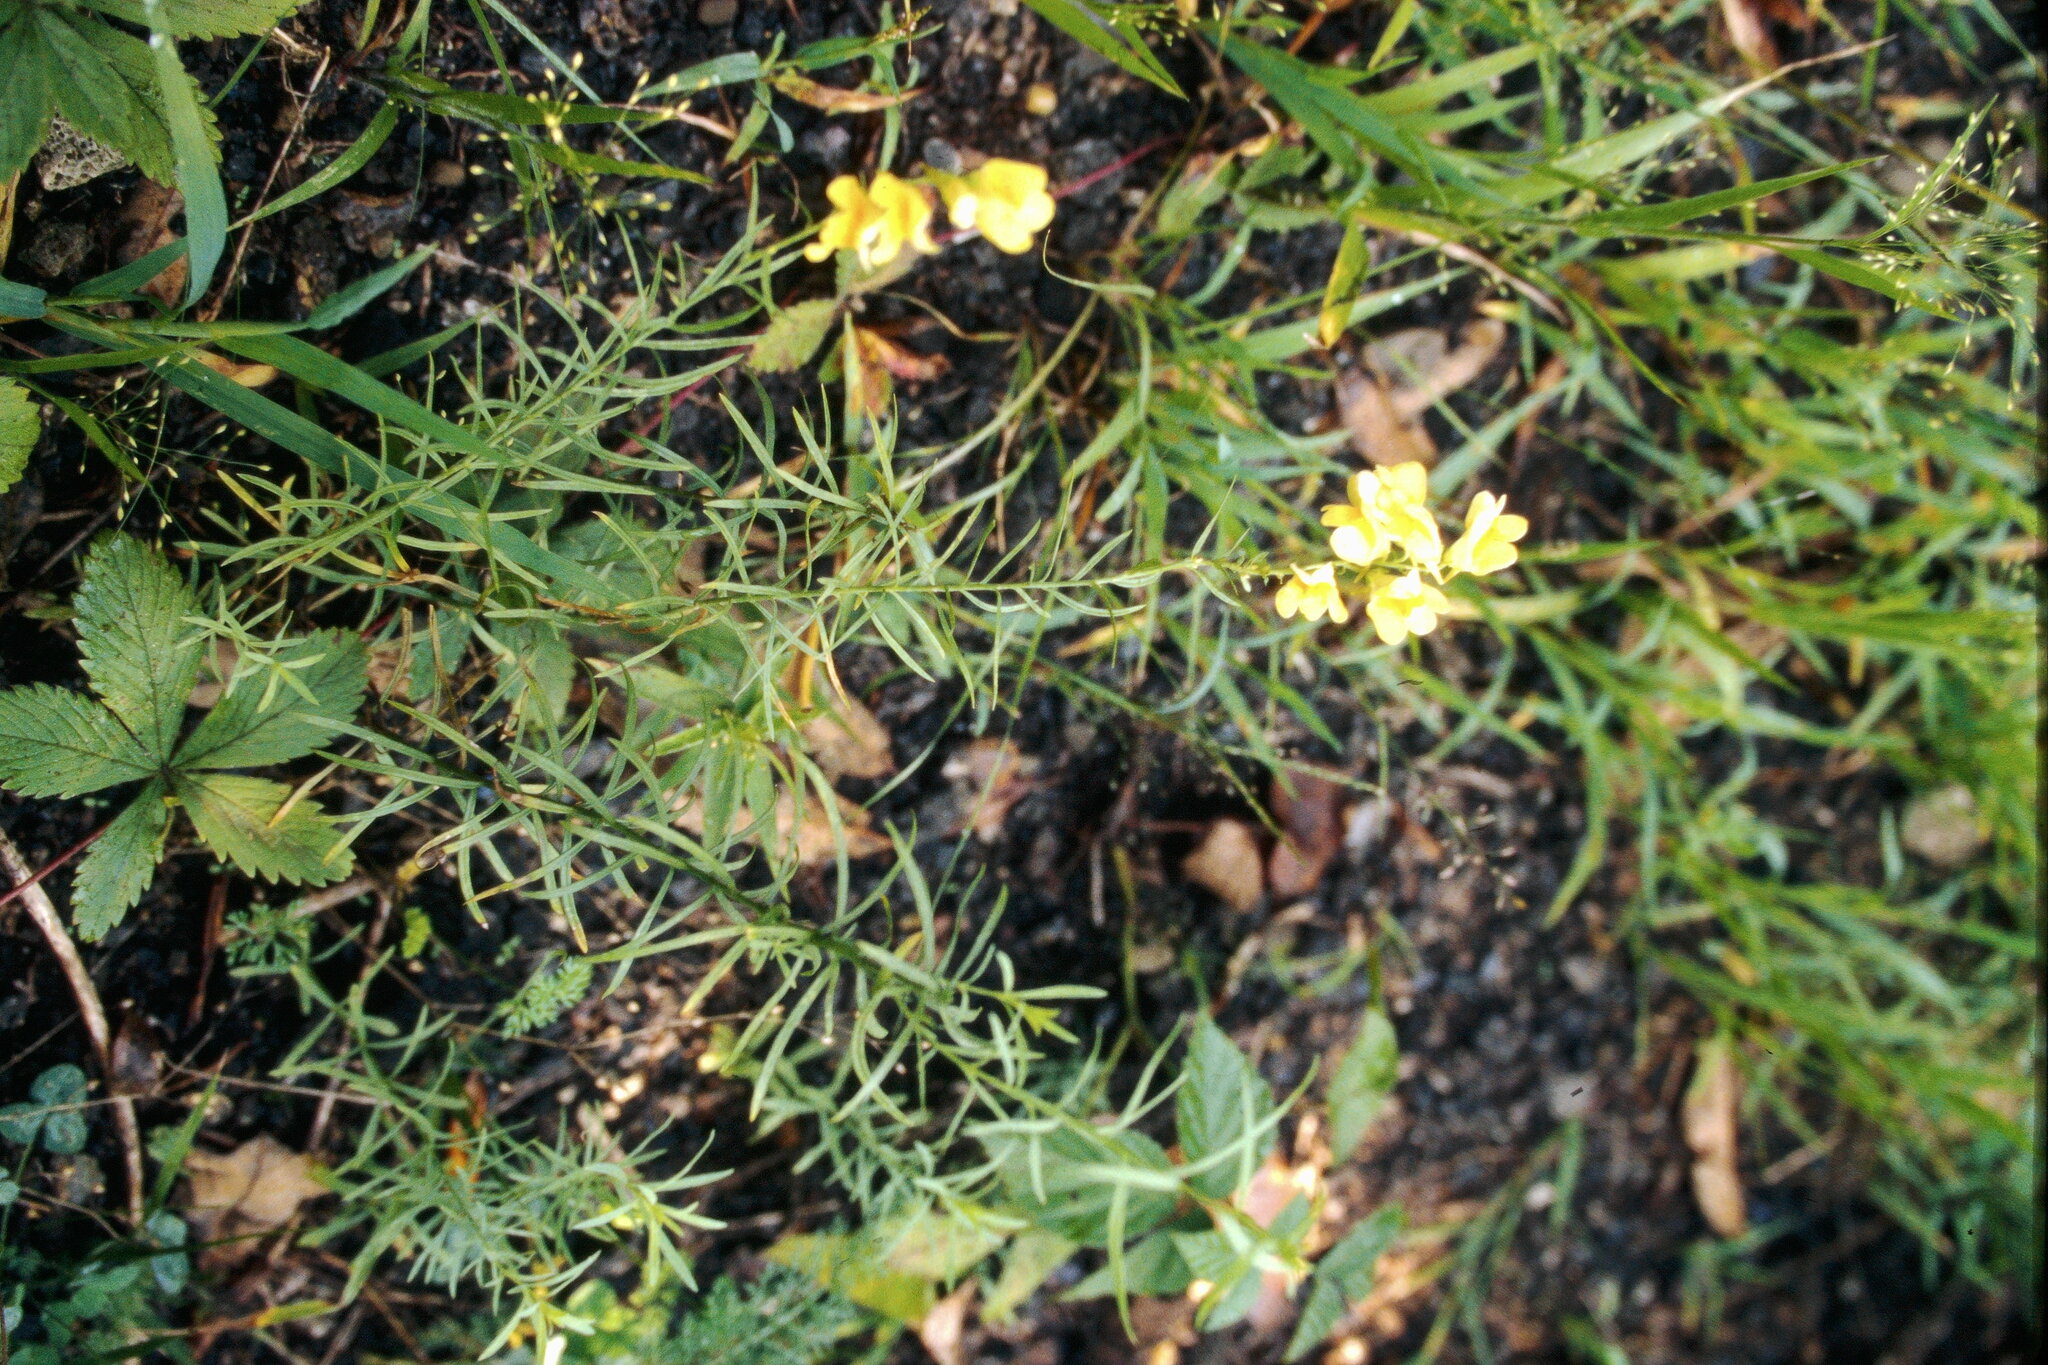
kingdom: Plantae
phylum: Tracheophyta
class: Magnoliopsida
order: Lamiales
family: Plantaginaceae
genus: Linaria
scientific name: Linaria vulgaris
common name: Butter and eggs
